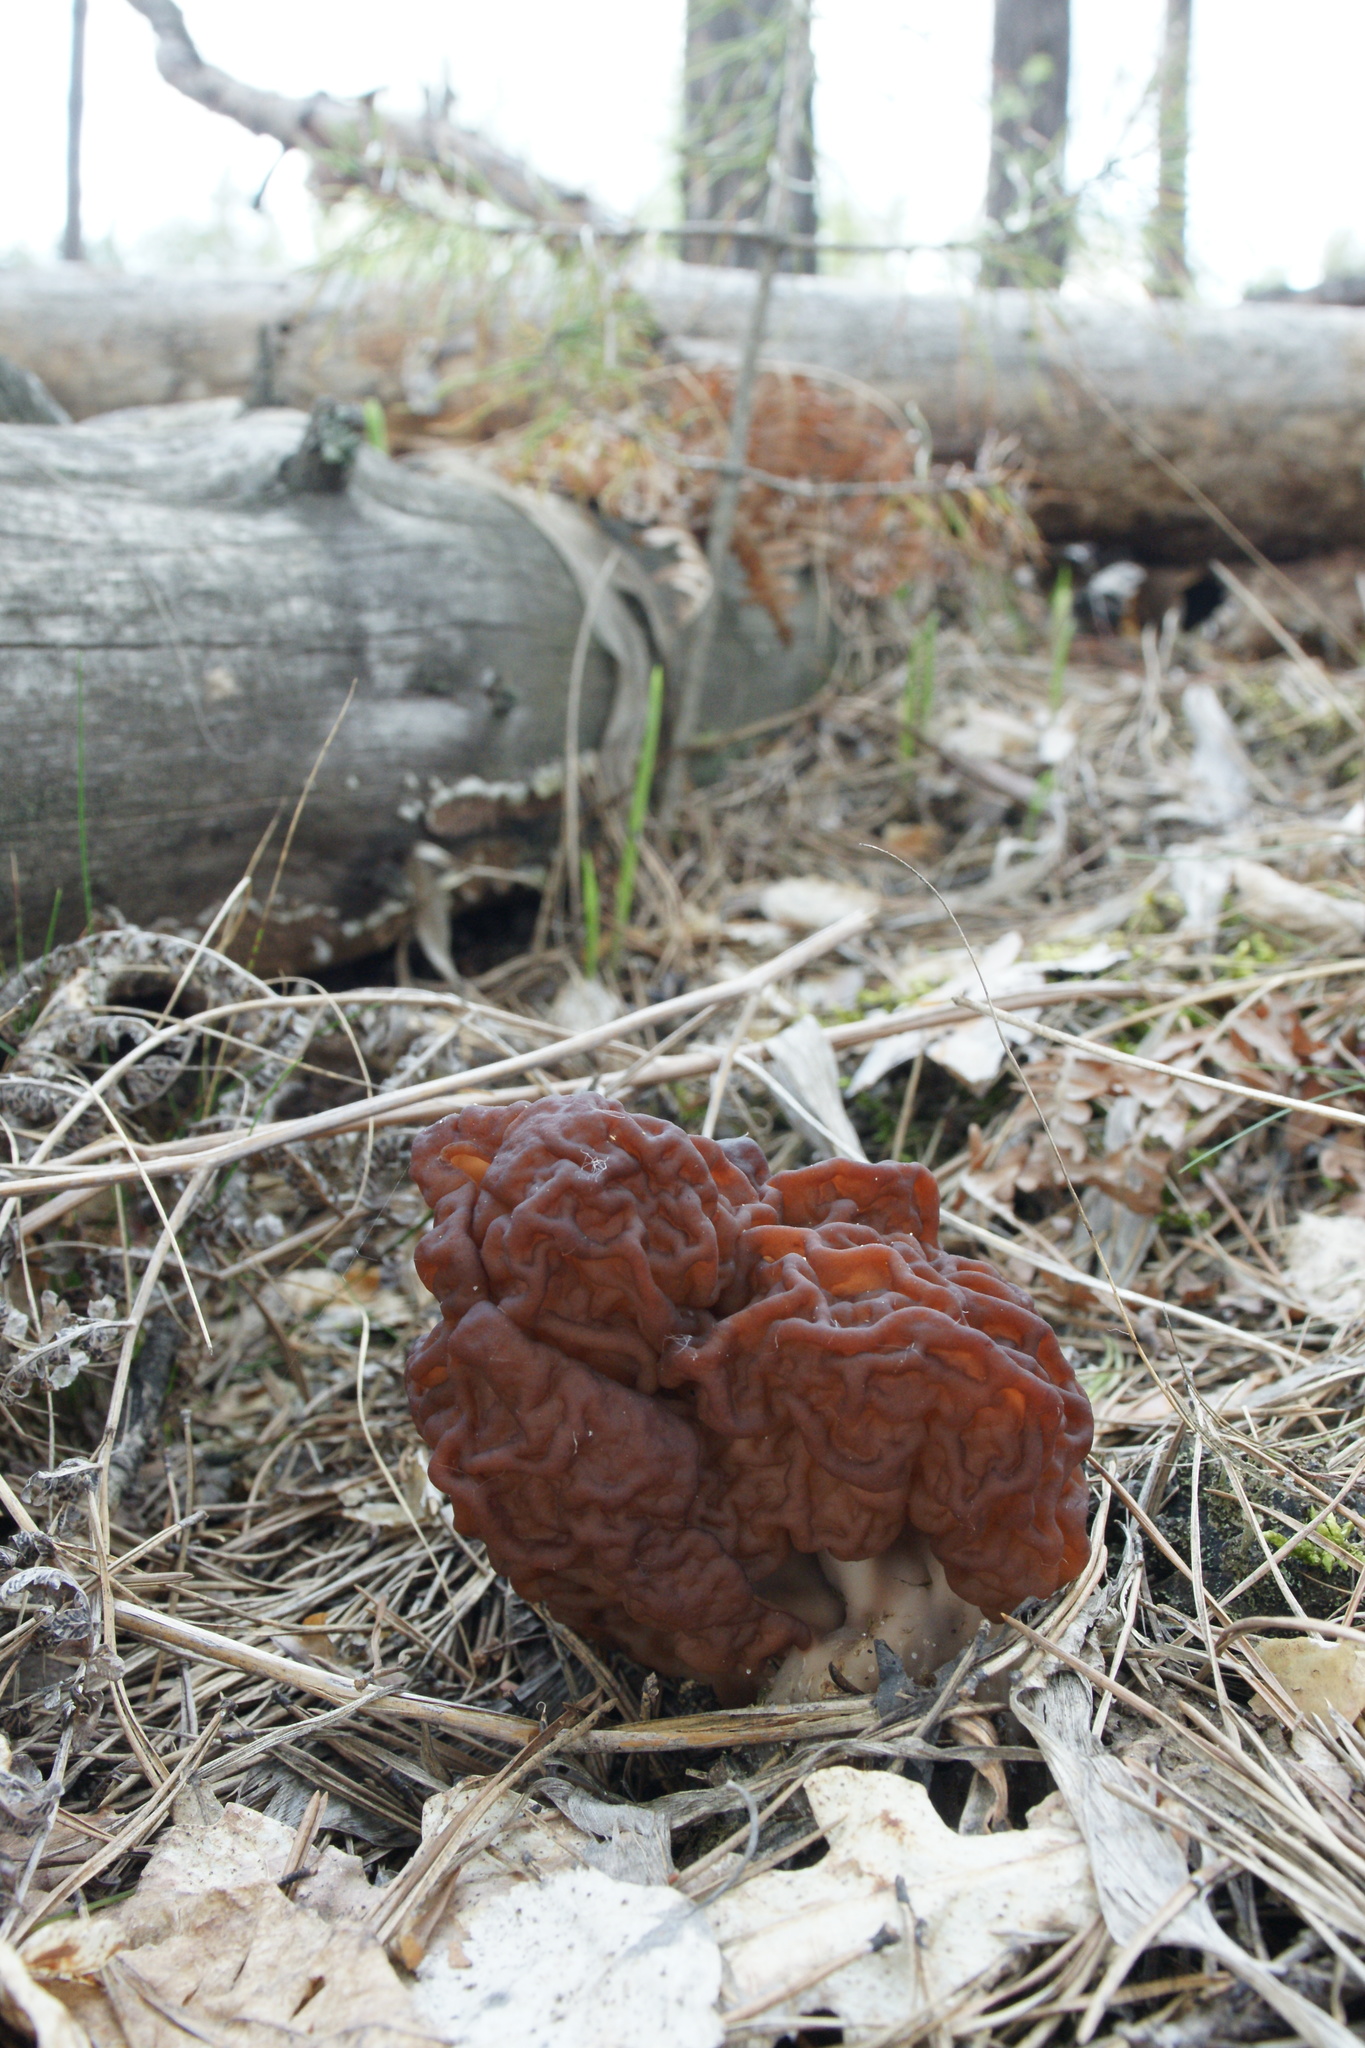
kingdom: Fungi
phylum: Ascomycota
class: Pezizomycetes
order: Pezizales
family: Discinaceae
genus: Gyromitra
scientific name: Gyromitra esculenta
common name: False morel
